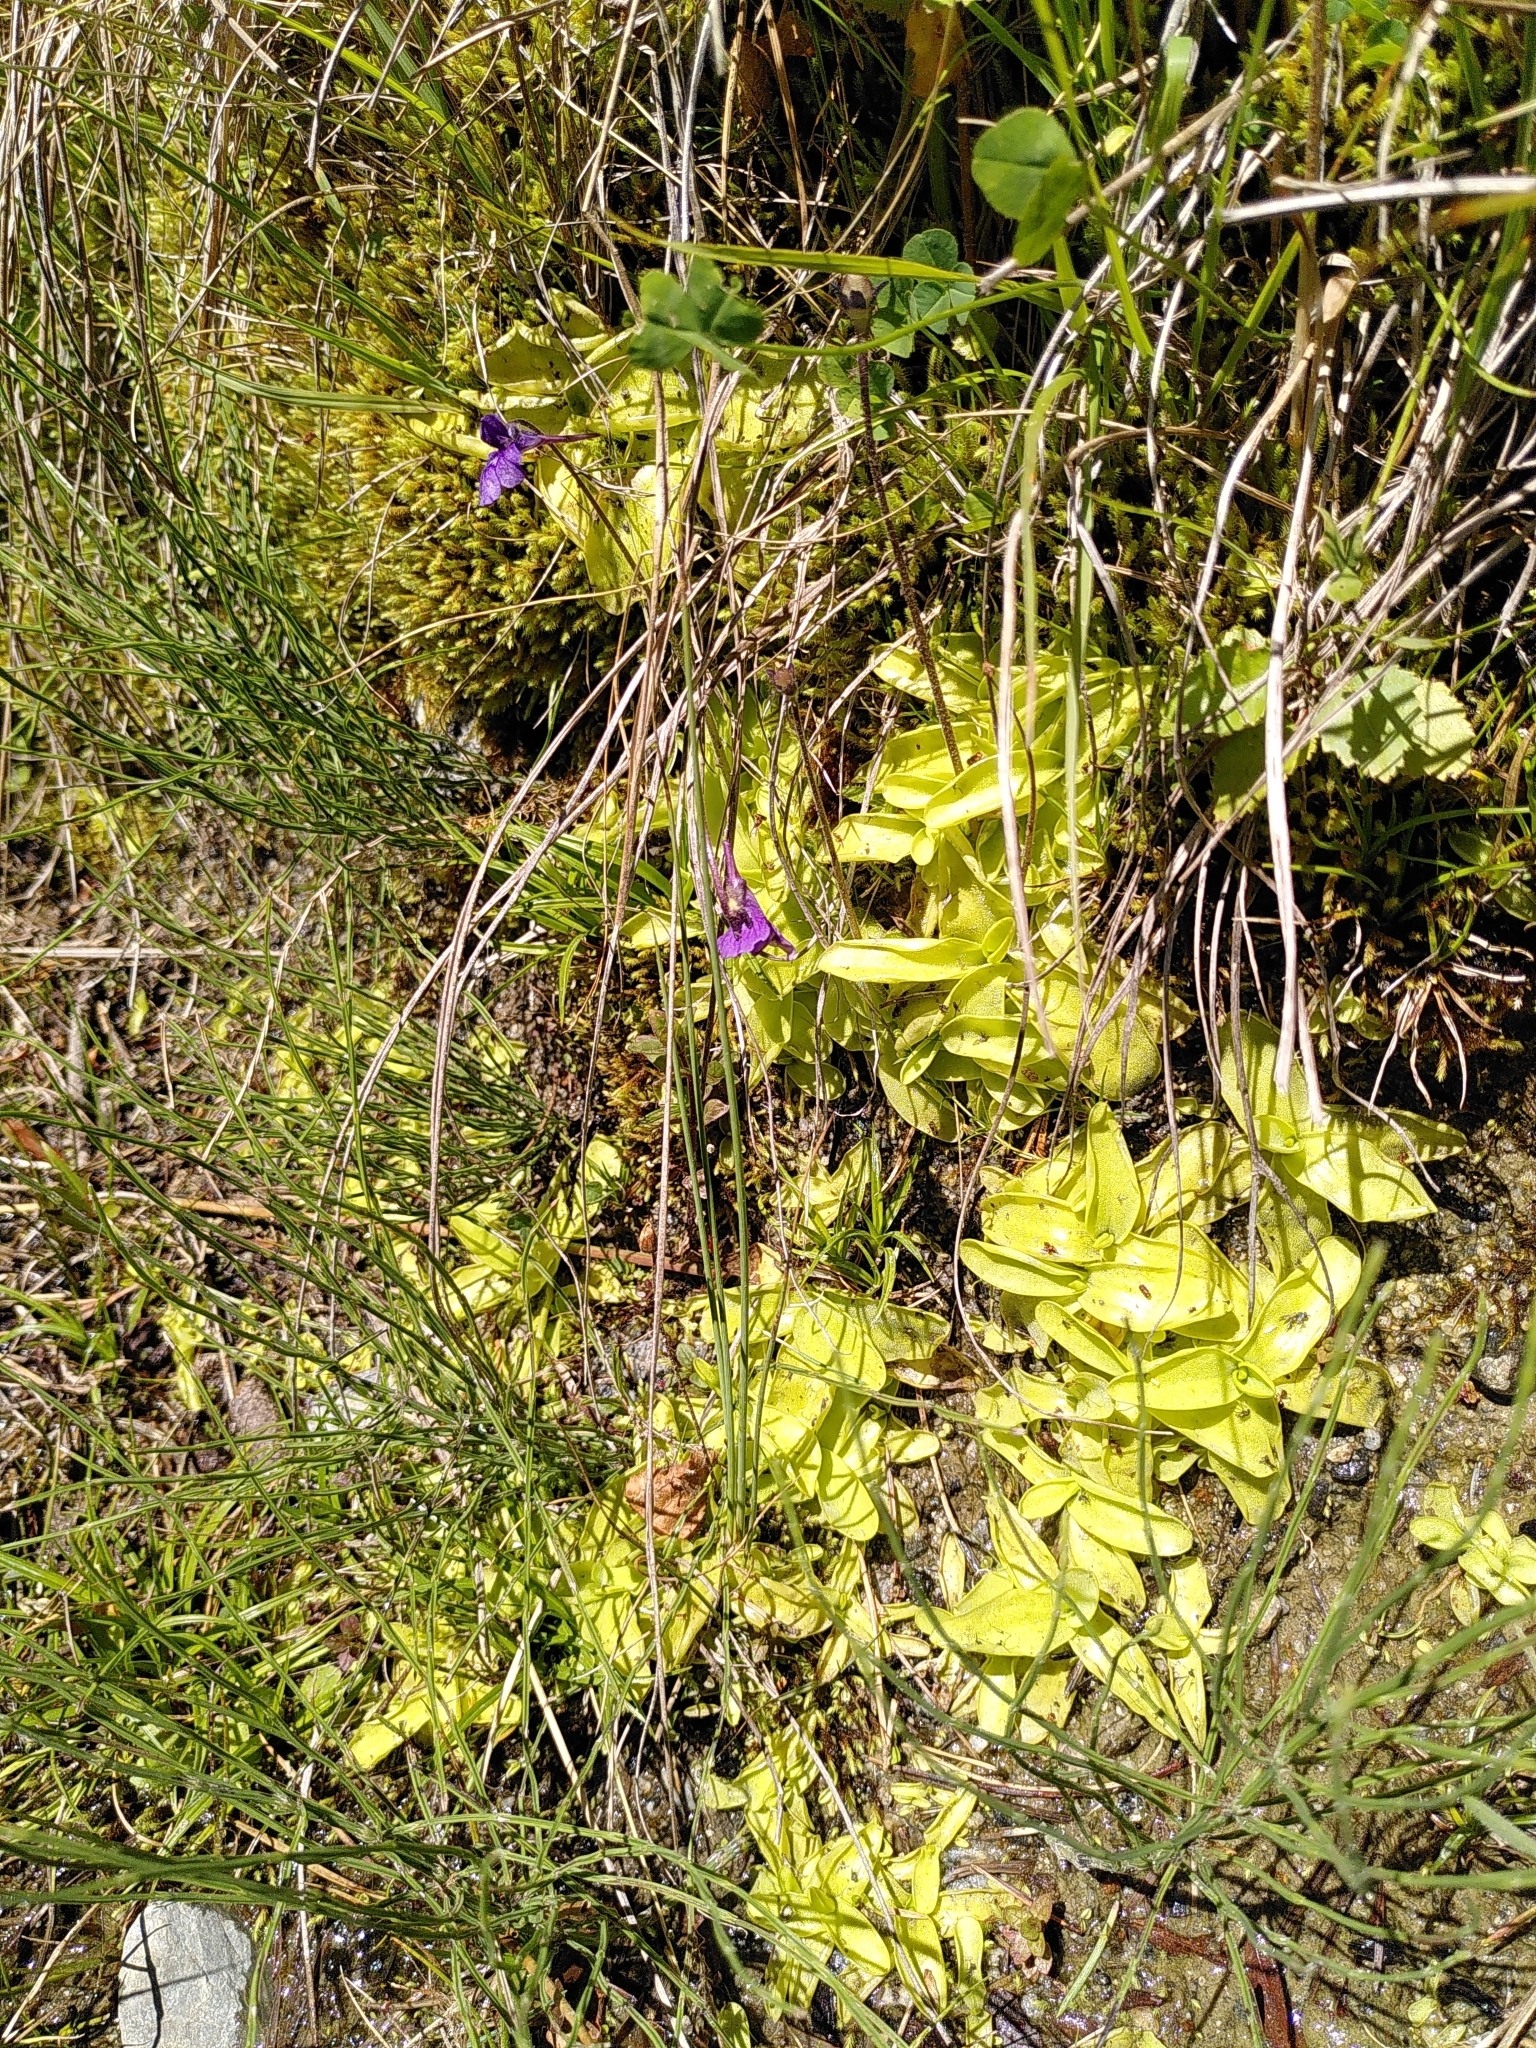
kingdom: Plantae
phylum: Tracheophyta
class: Magnoliopsida
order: Lamiales
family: Lentibulariaceae
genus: Pinguicula
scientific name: Pinguicula grandiflora
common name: Large-flowered butterwort
